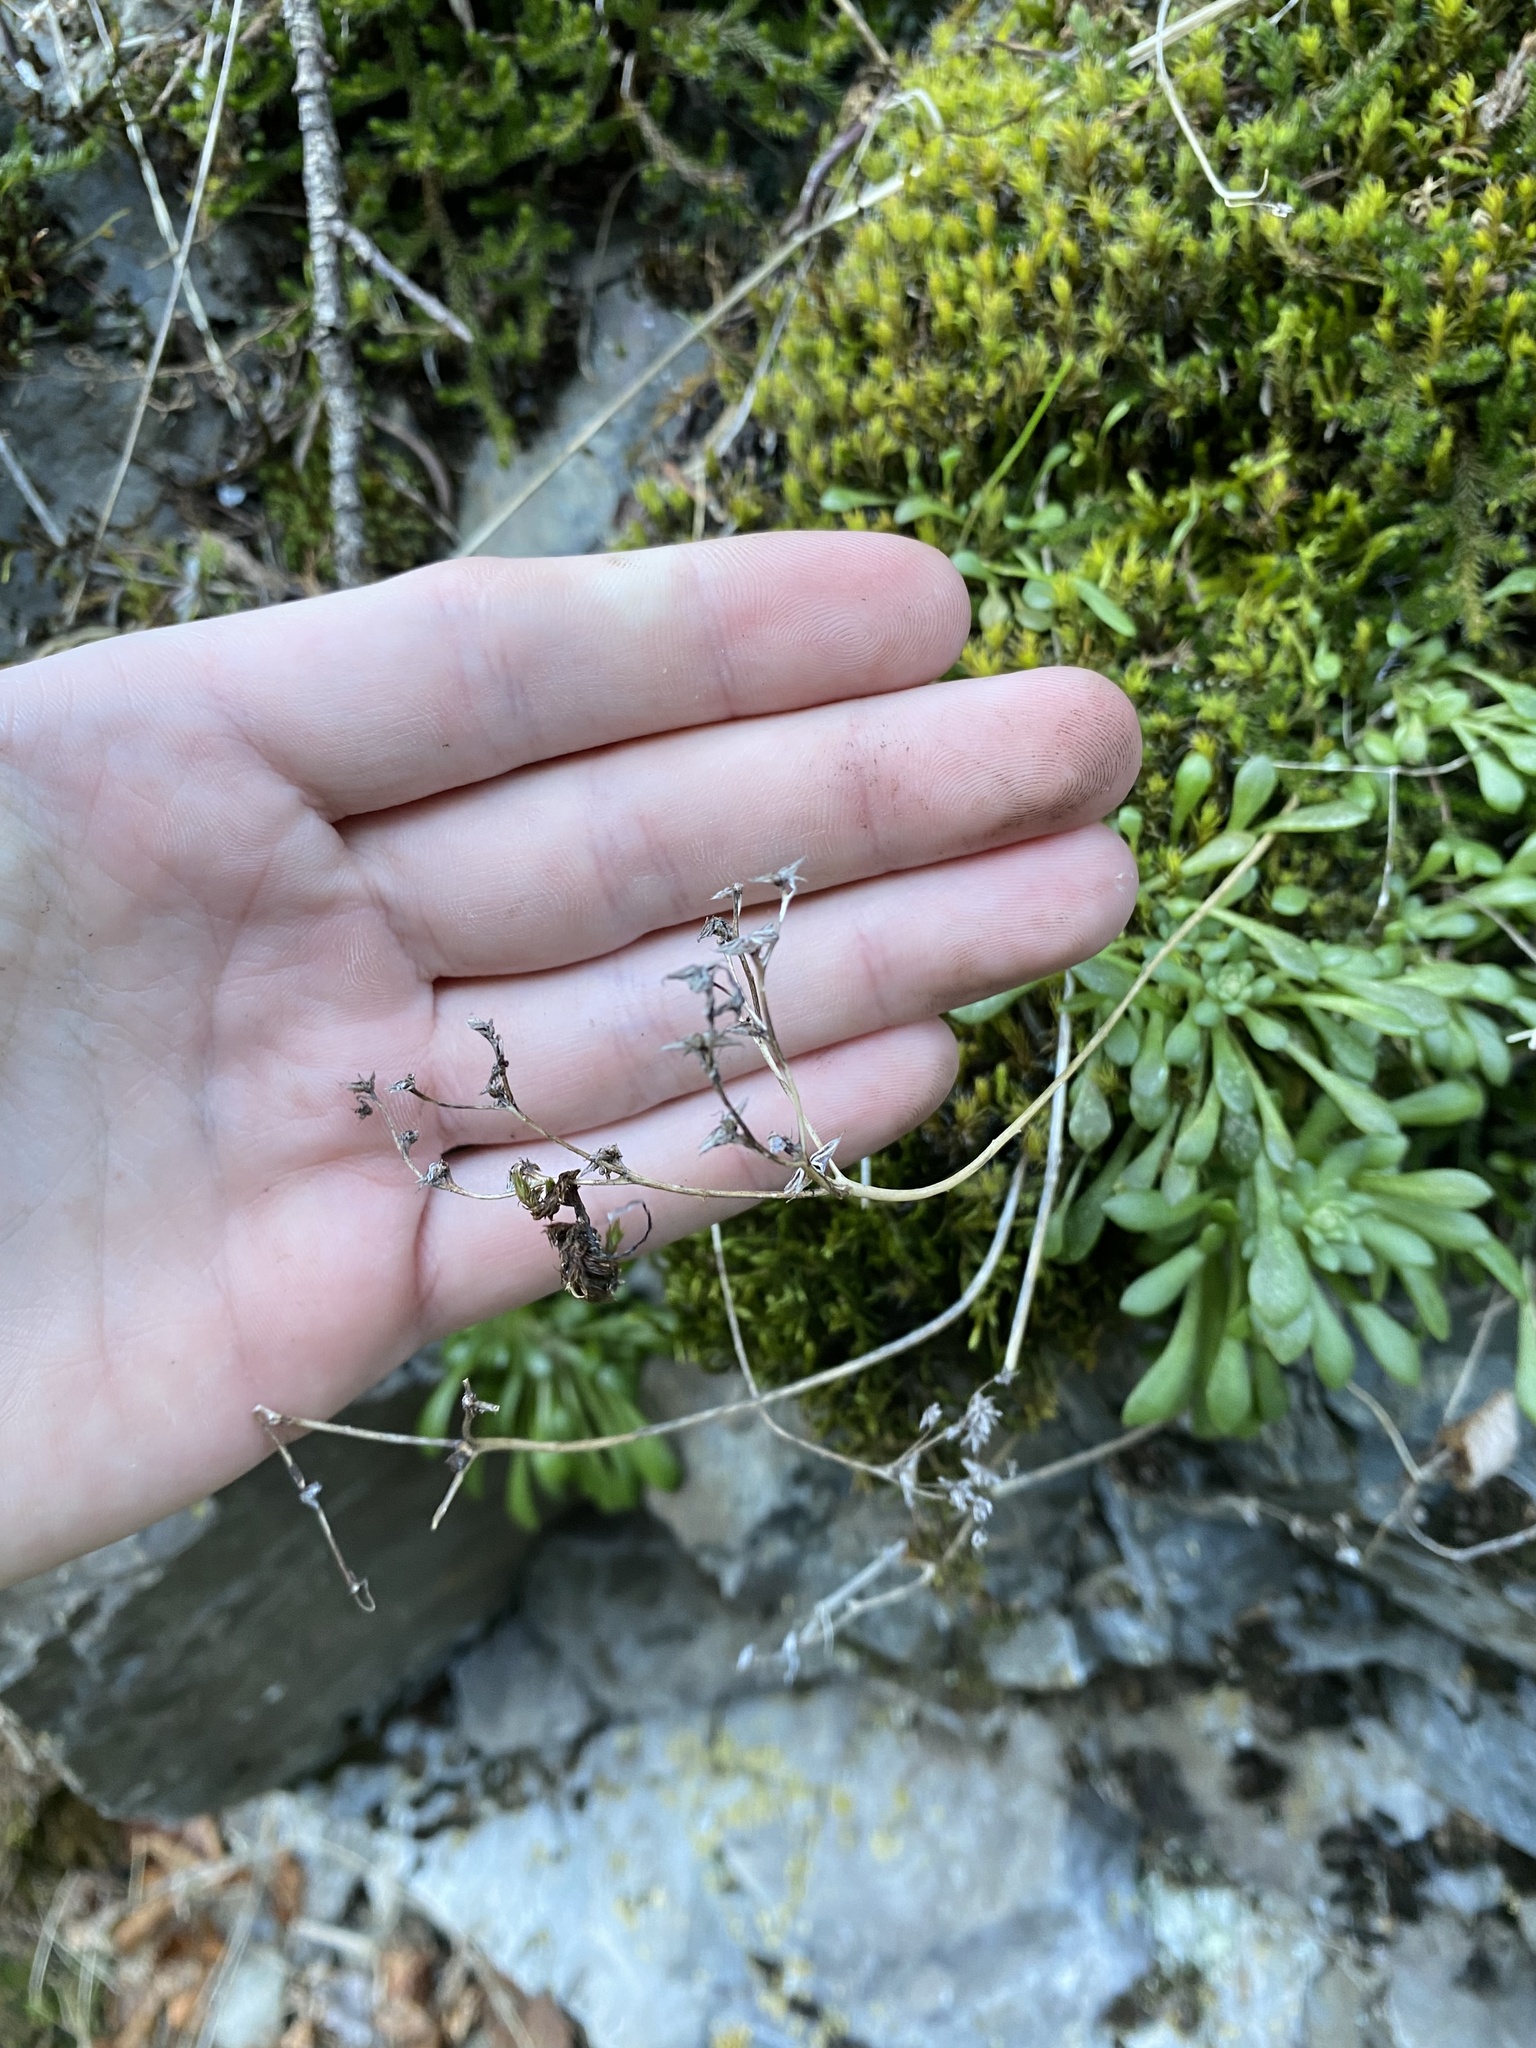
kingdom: Plantae
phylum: Tracheophyta
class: Magnoliopsida
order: Saxifragales
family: Crassulaceae
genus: Sedum
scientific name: Sedum leibergii
